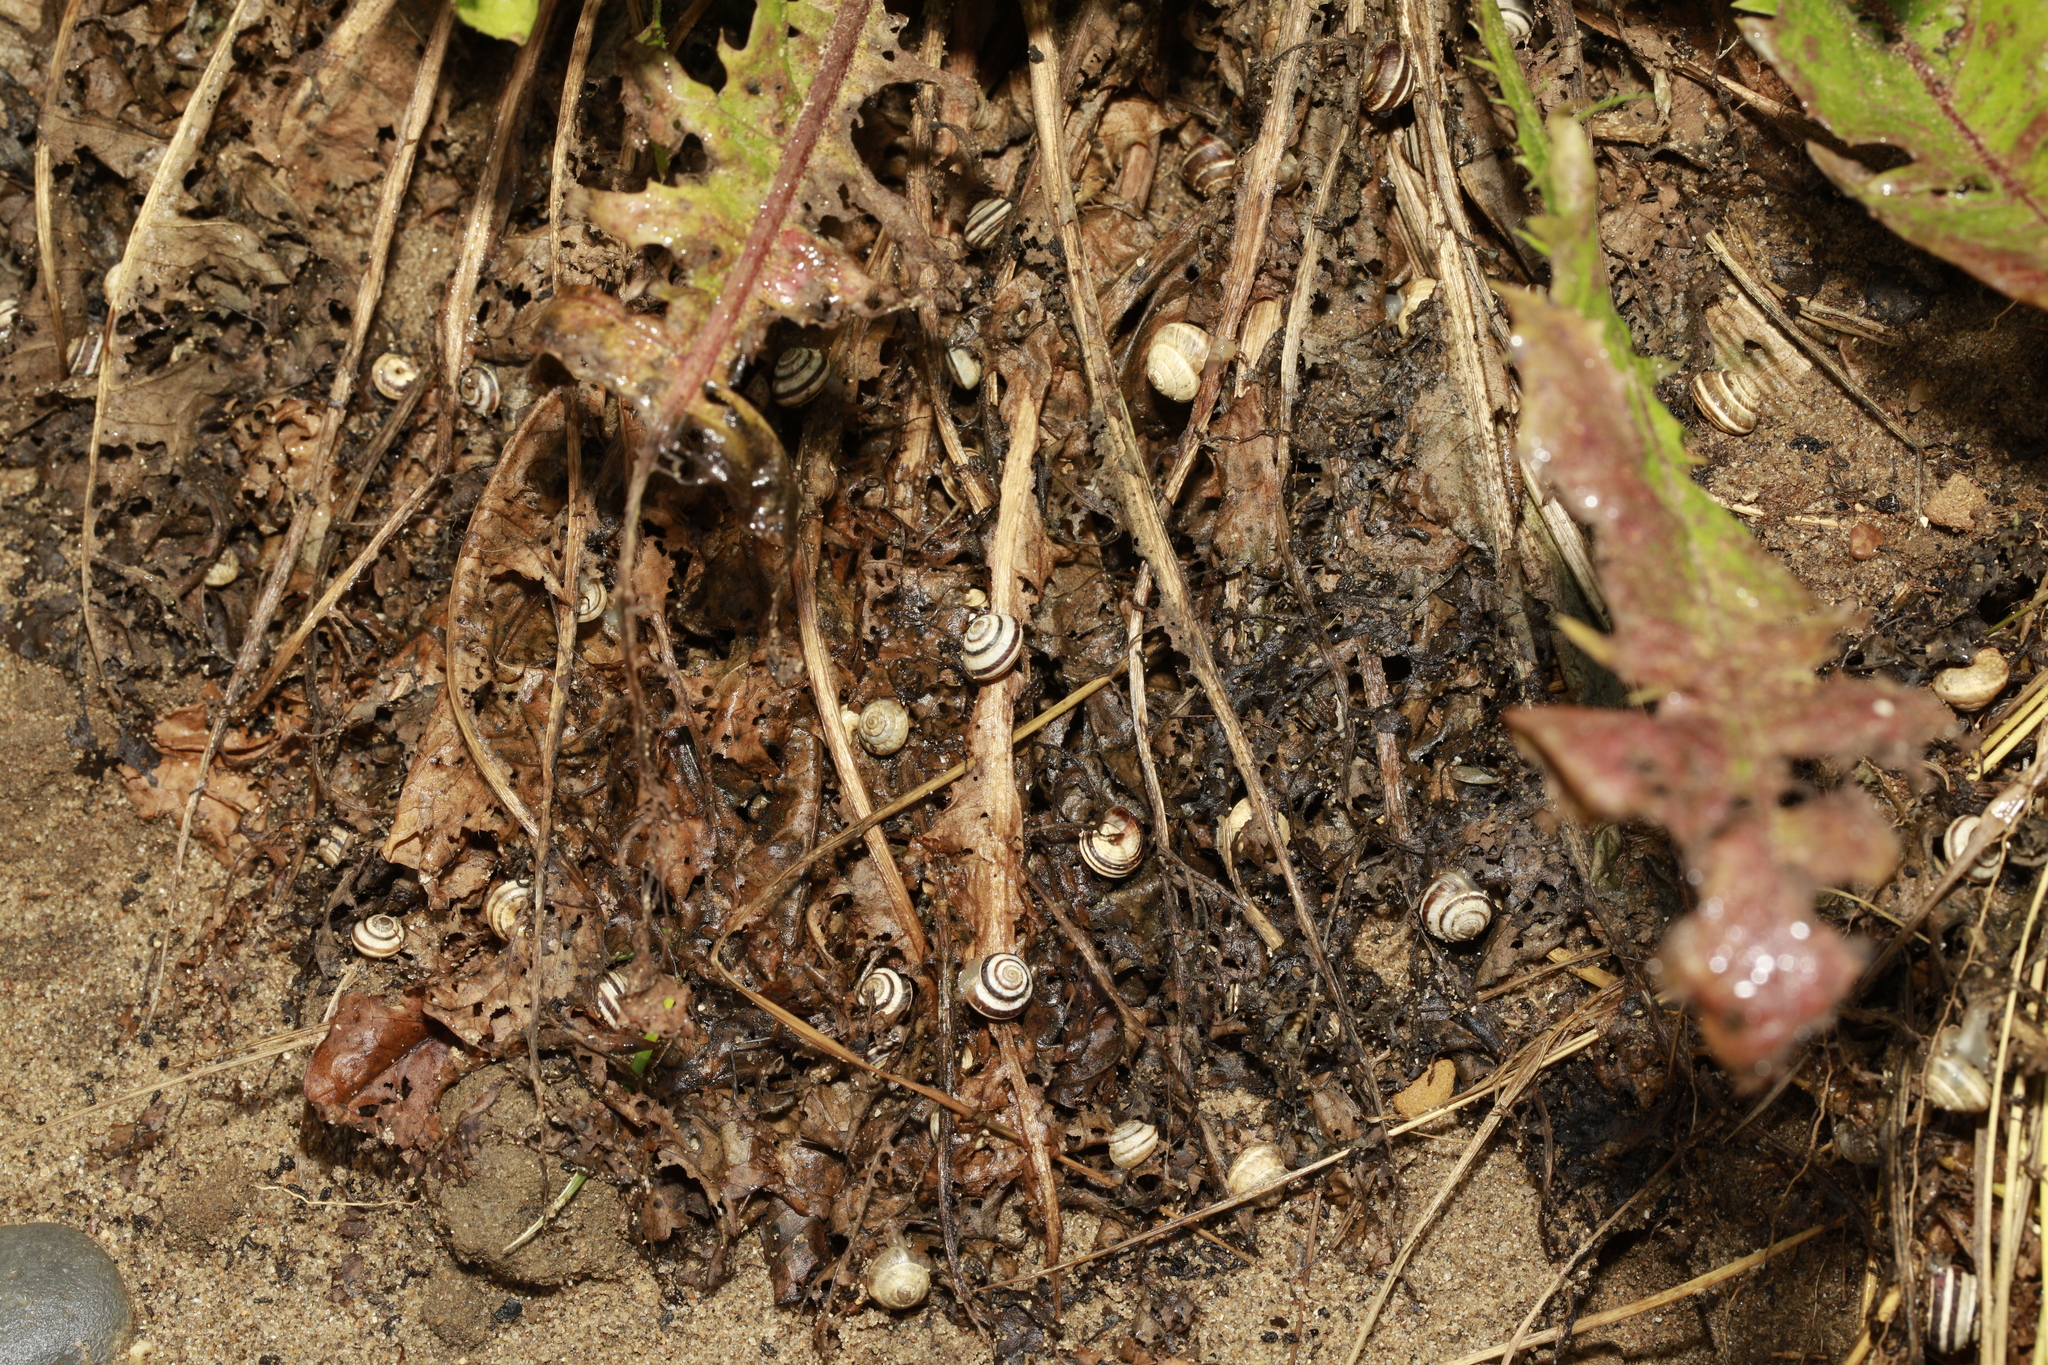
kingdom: Animalia
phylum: Mollusca
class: Gastropoda
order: Stylommatophora
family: Geomitridae
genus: Cernuella
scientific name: Cernuella virgata
